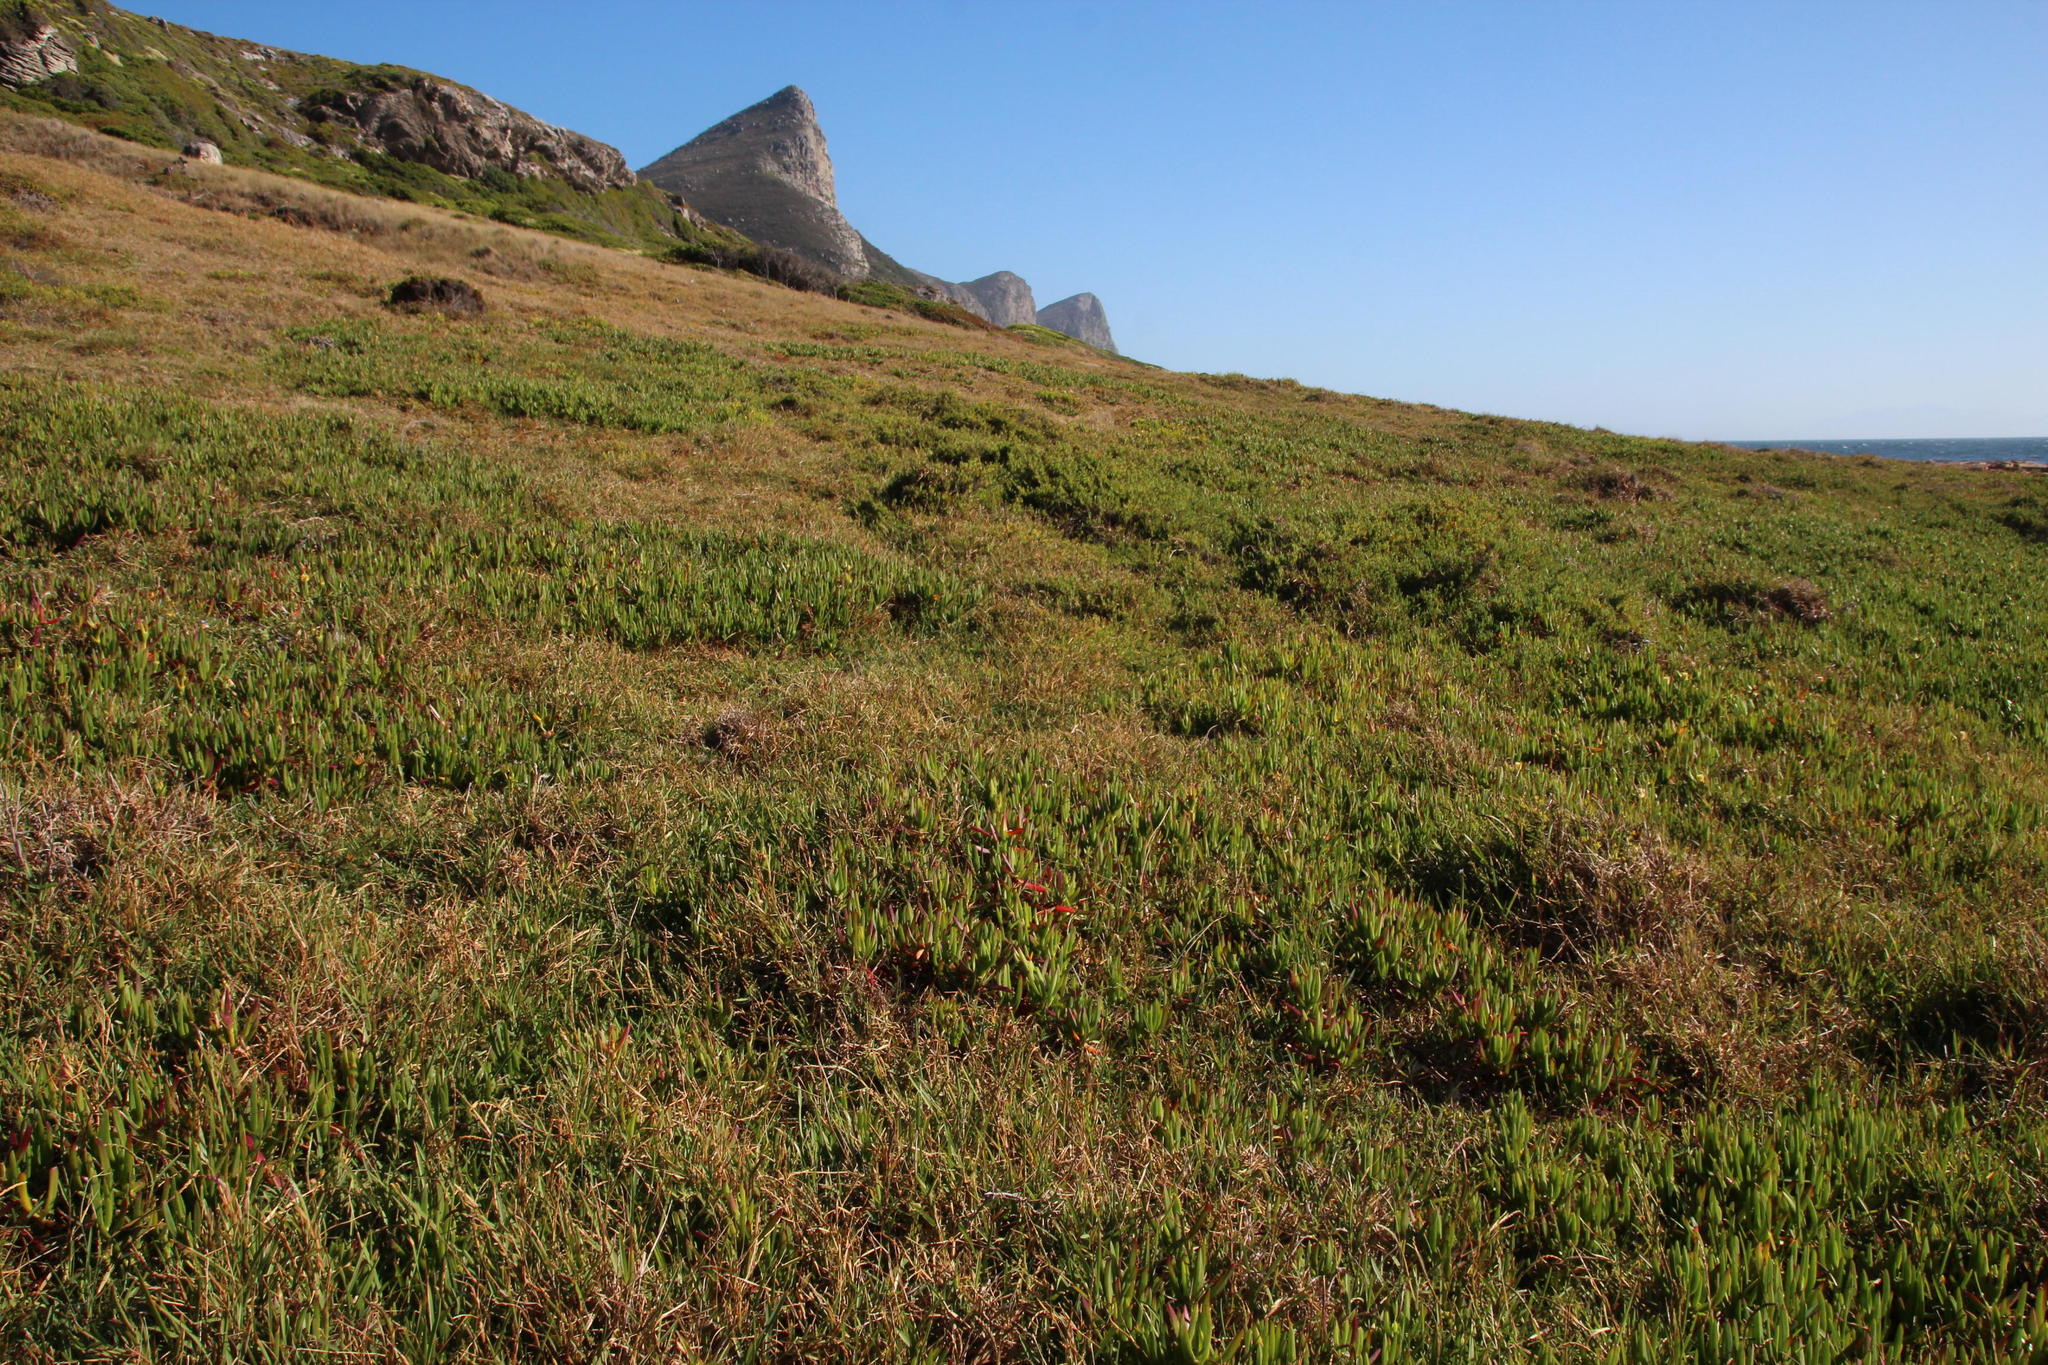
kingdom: Plantae
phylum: Tracheophyta
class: Magnoliopsida
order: Caryophyllales
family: Aizoaceae
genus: Carpobrotus
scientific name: Carpobrotus edulis
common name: Hottentot-fig
